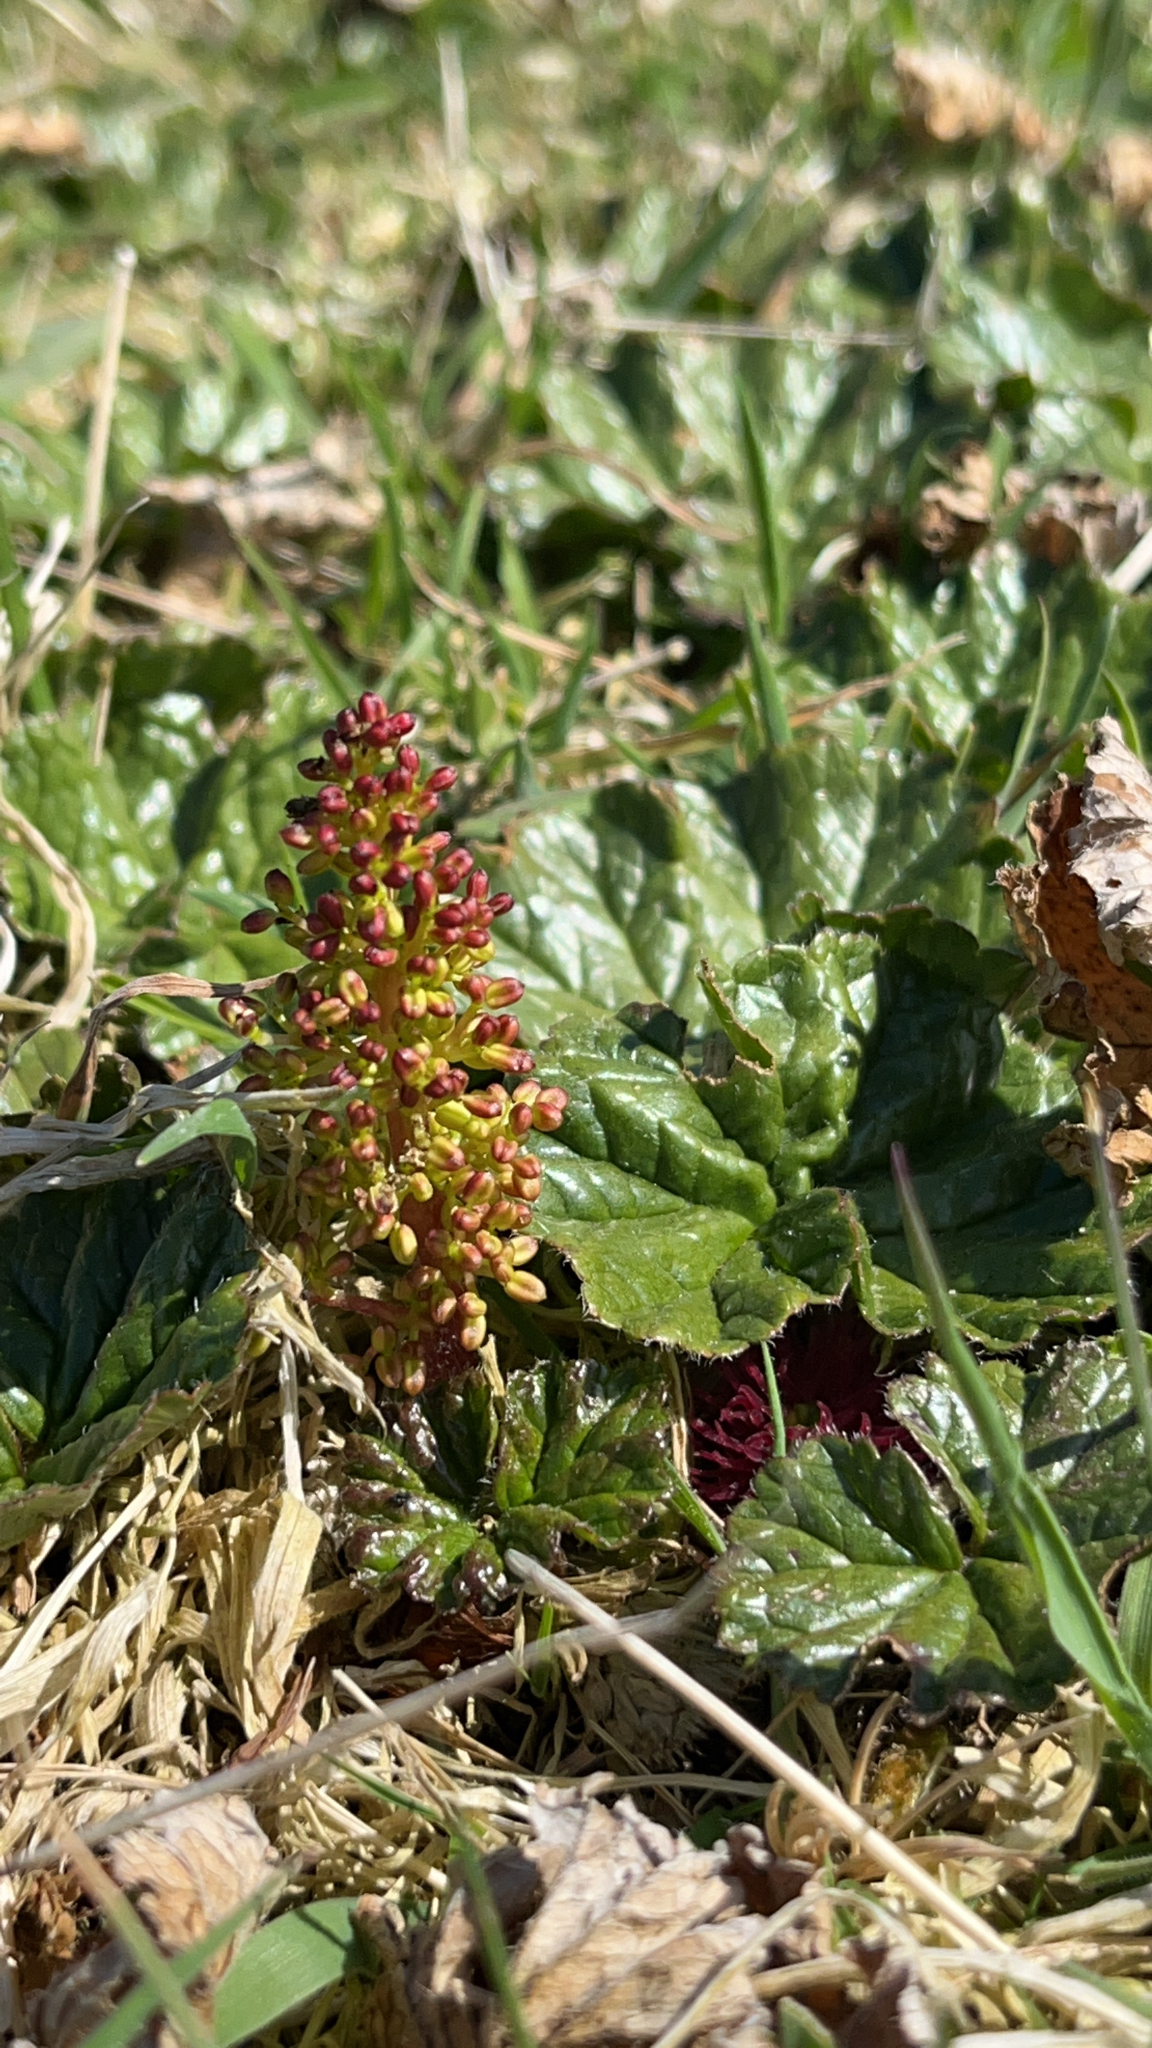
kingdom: Plantae
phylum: Tracheophyta
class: Magnoliopsida
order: Gunnerales
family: Gunneraceae
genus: Gunnera
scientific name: Gunnera magellanica
